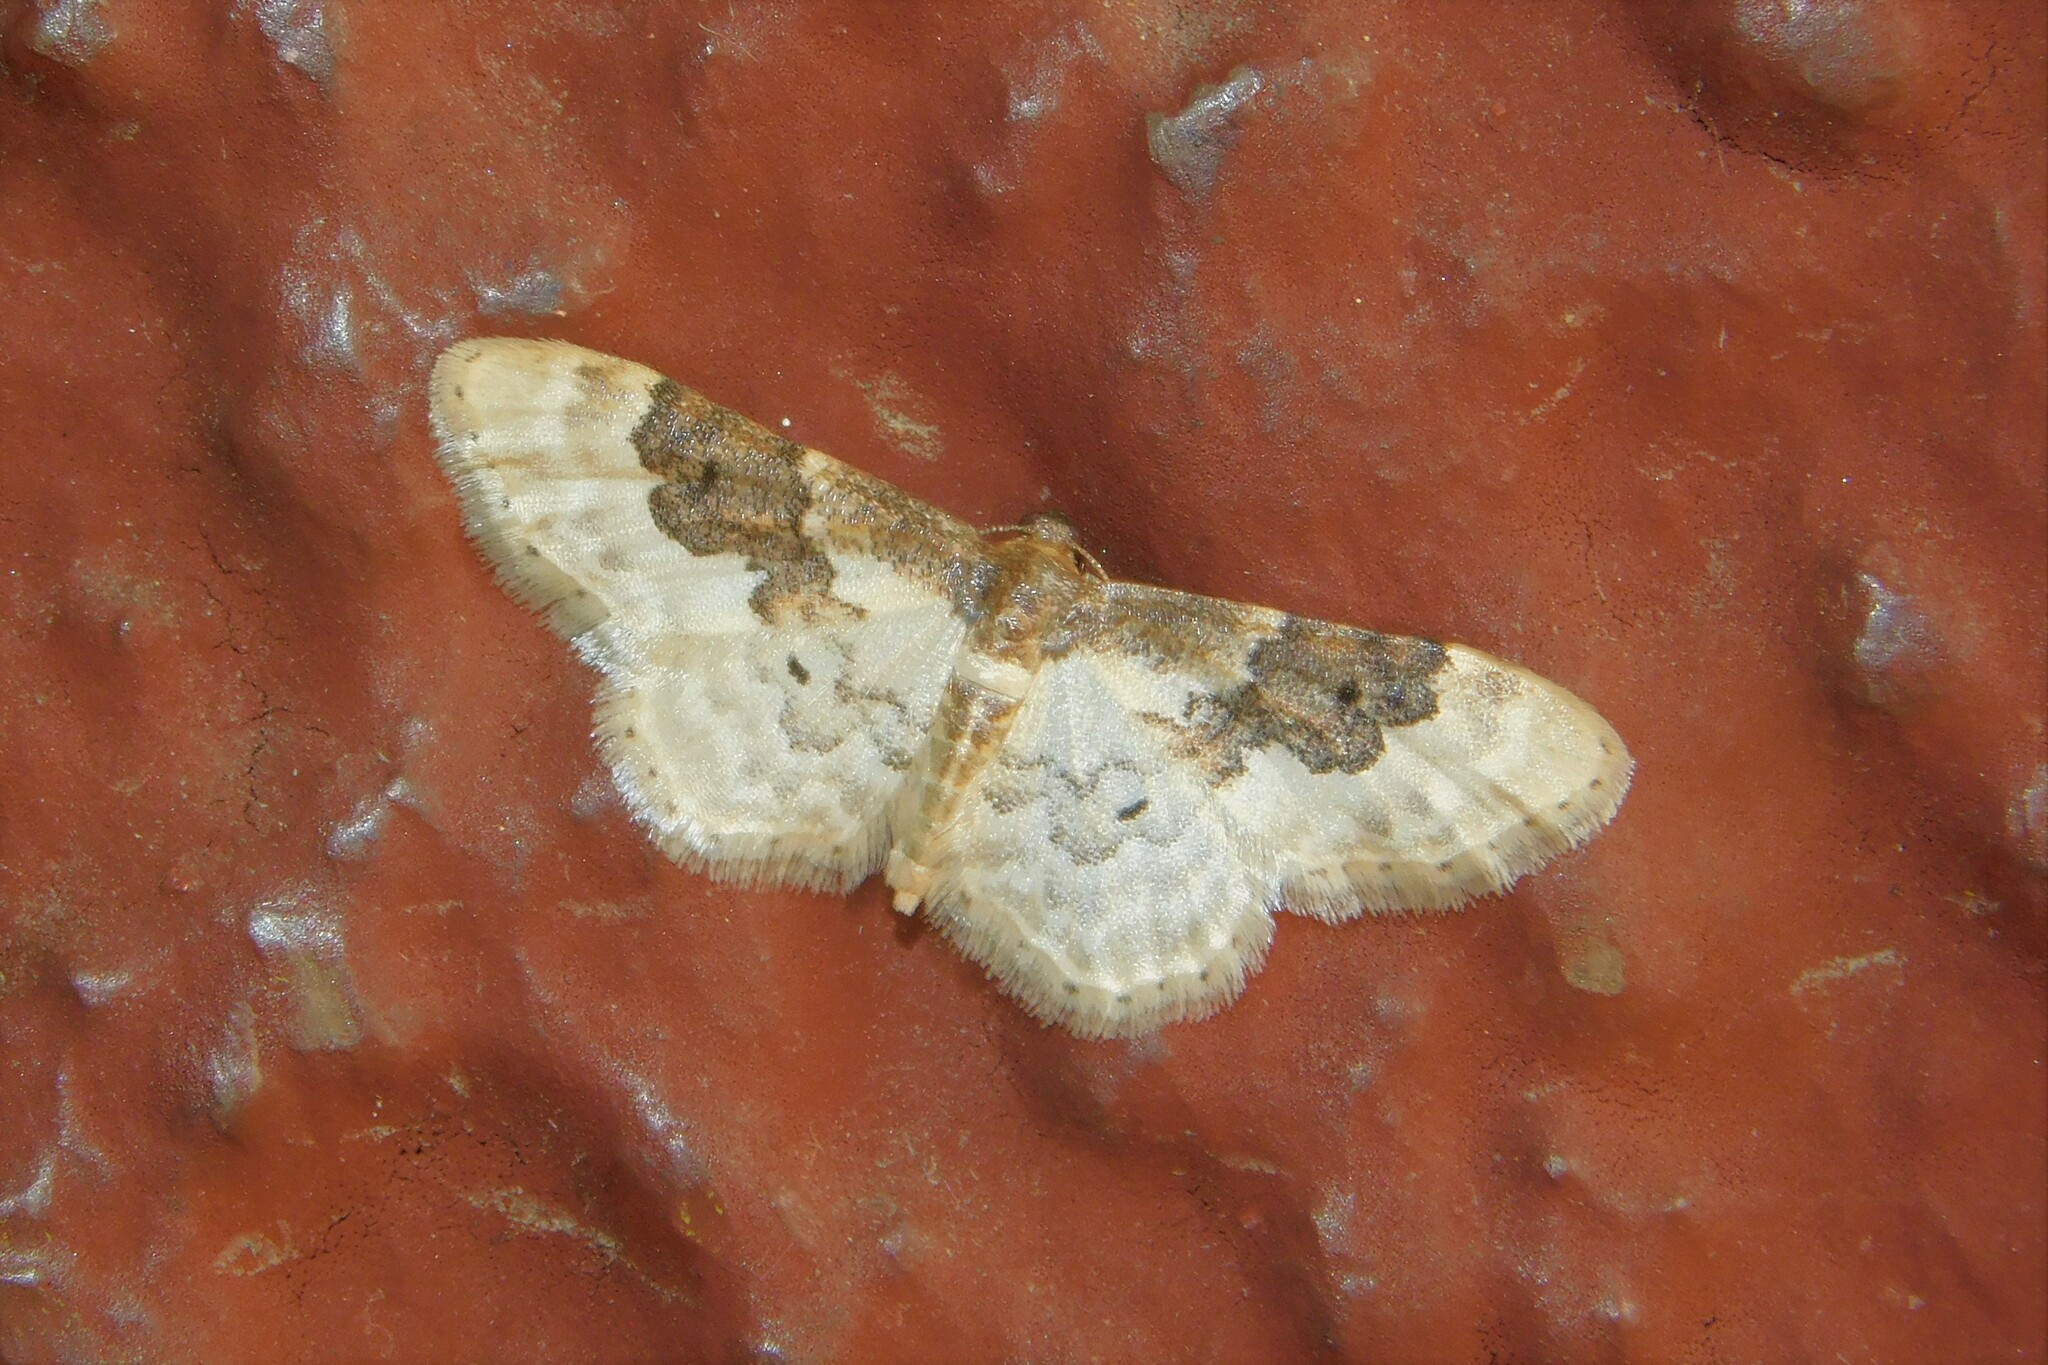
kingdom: Animalia
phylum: Arthropoda
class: Insecta
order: Lepidoptera
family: Geometridae
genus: Idaea
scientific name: Idaea rusticata
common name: Least carpet
